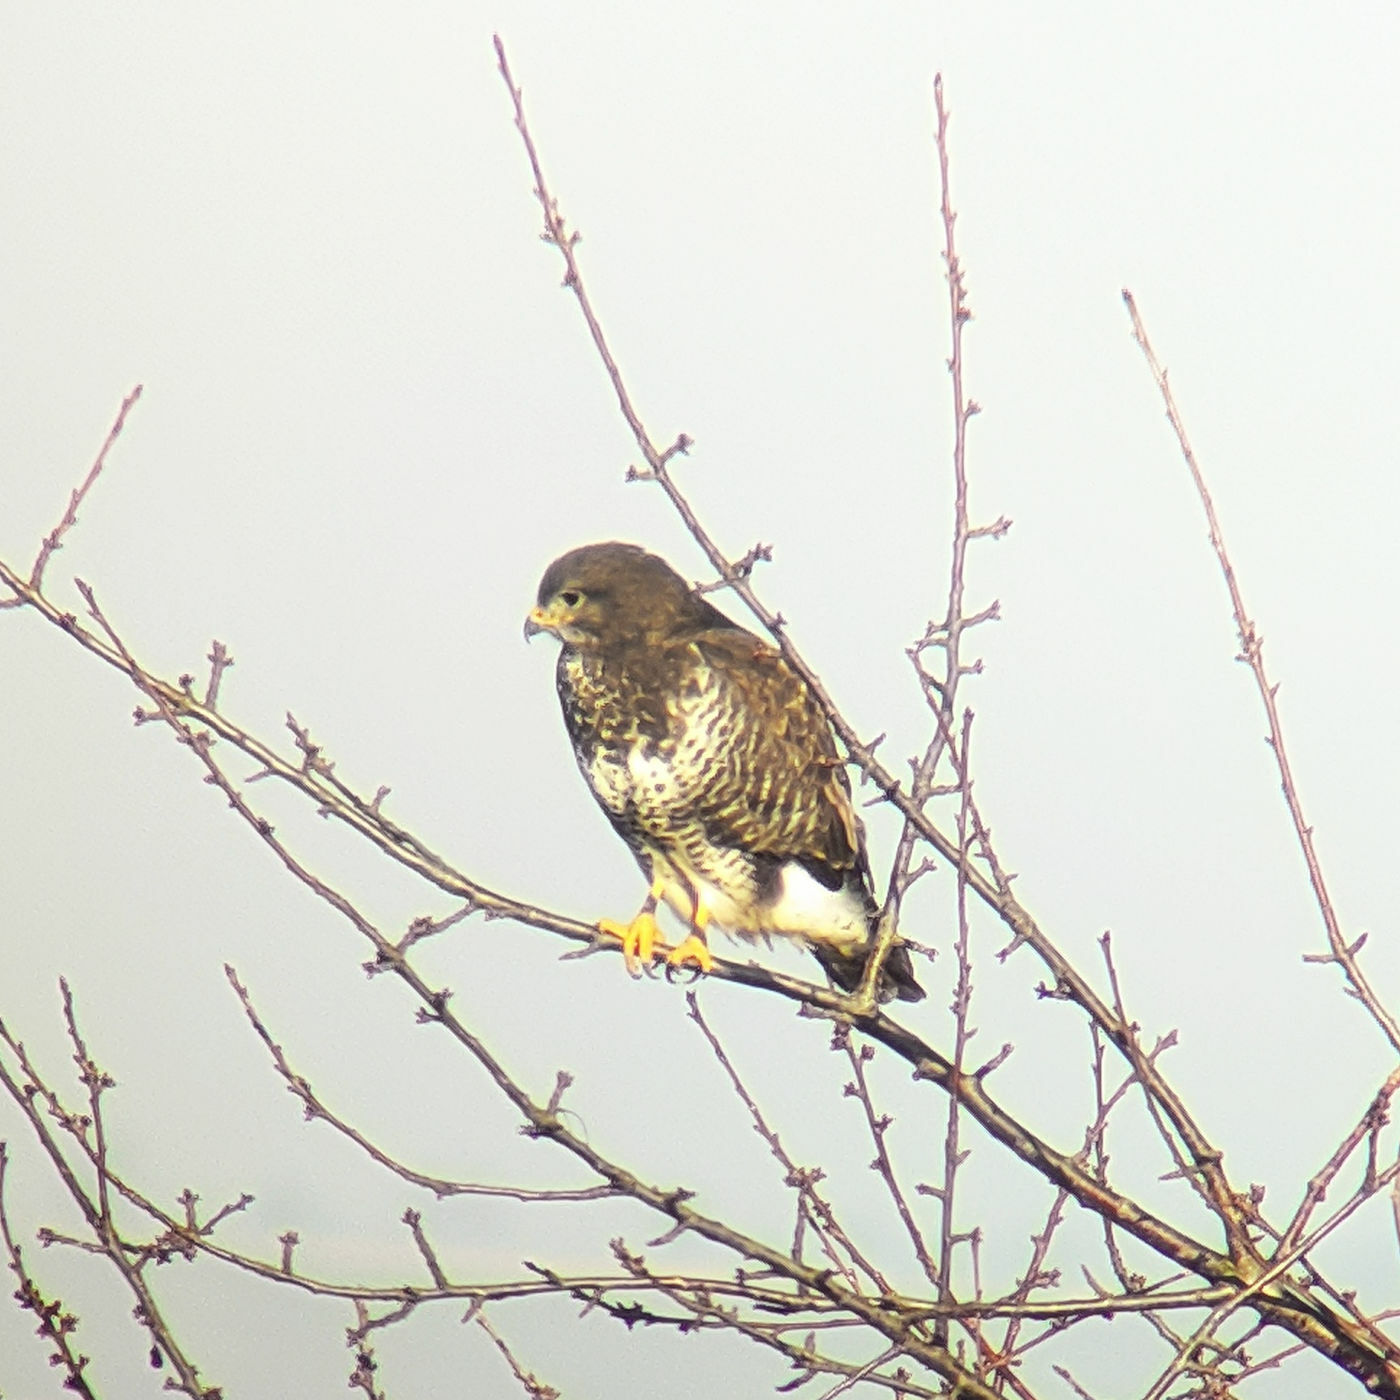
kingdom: Animalia
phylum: Chordata
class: Aves
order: Accipitriformes
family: Accipitridae
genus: Buteo
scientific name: Buteo buteo
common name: Common buzzard
